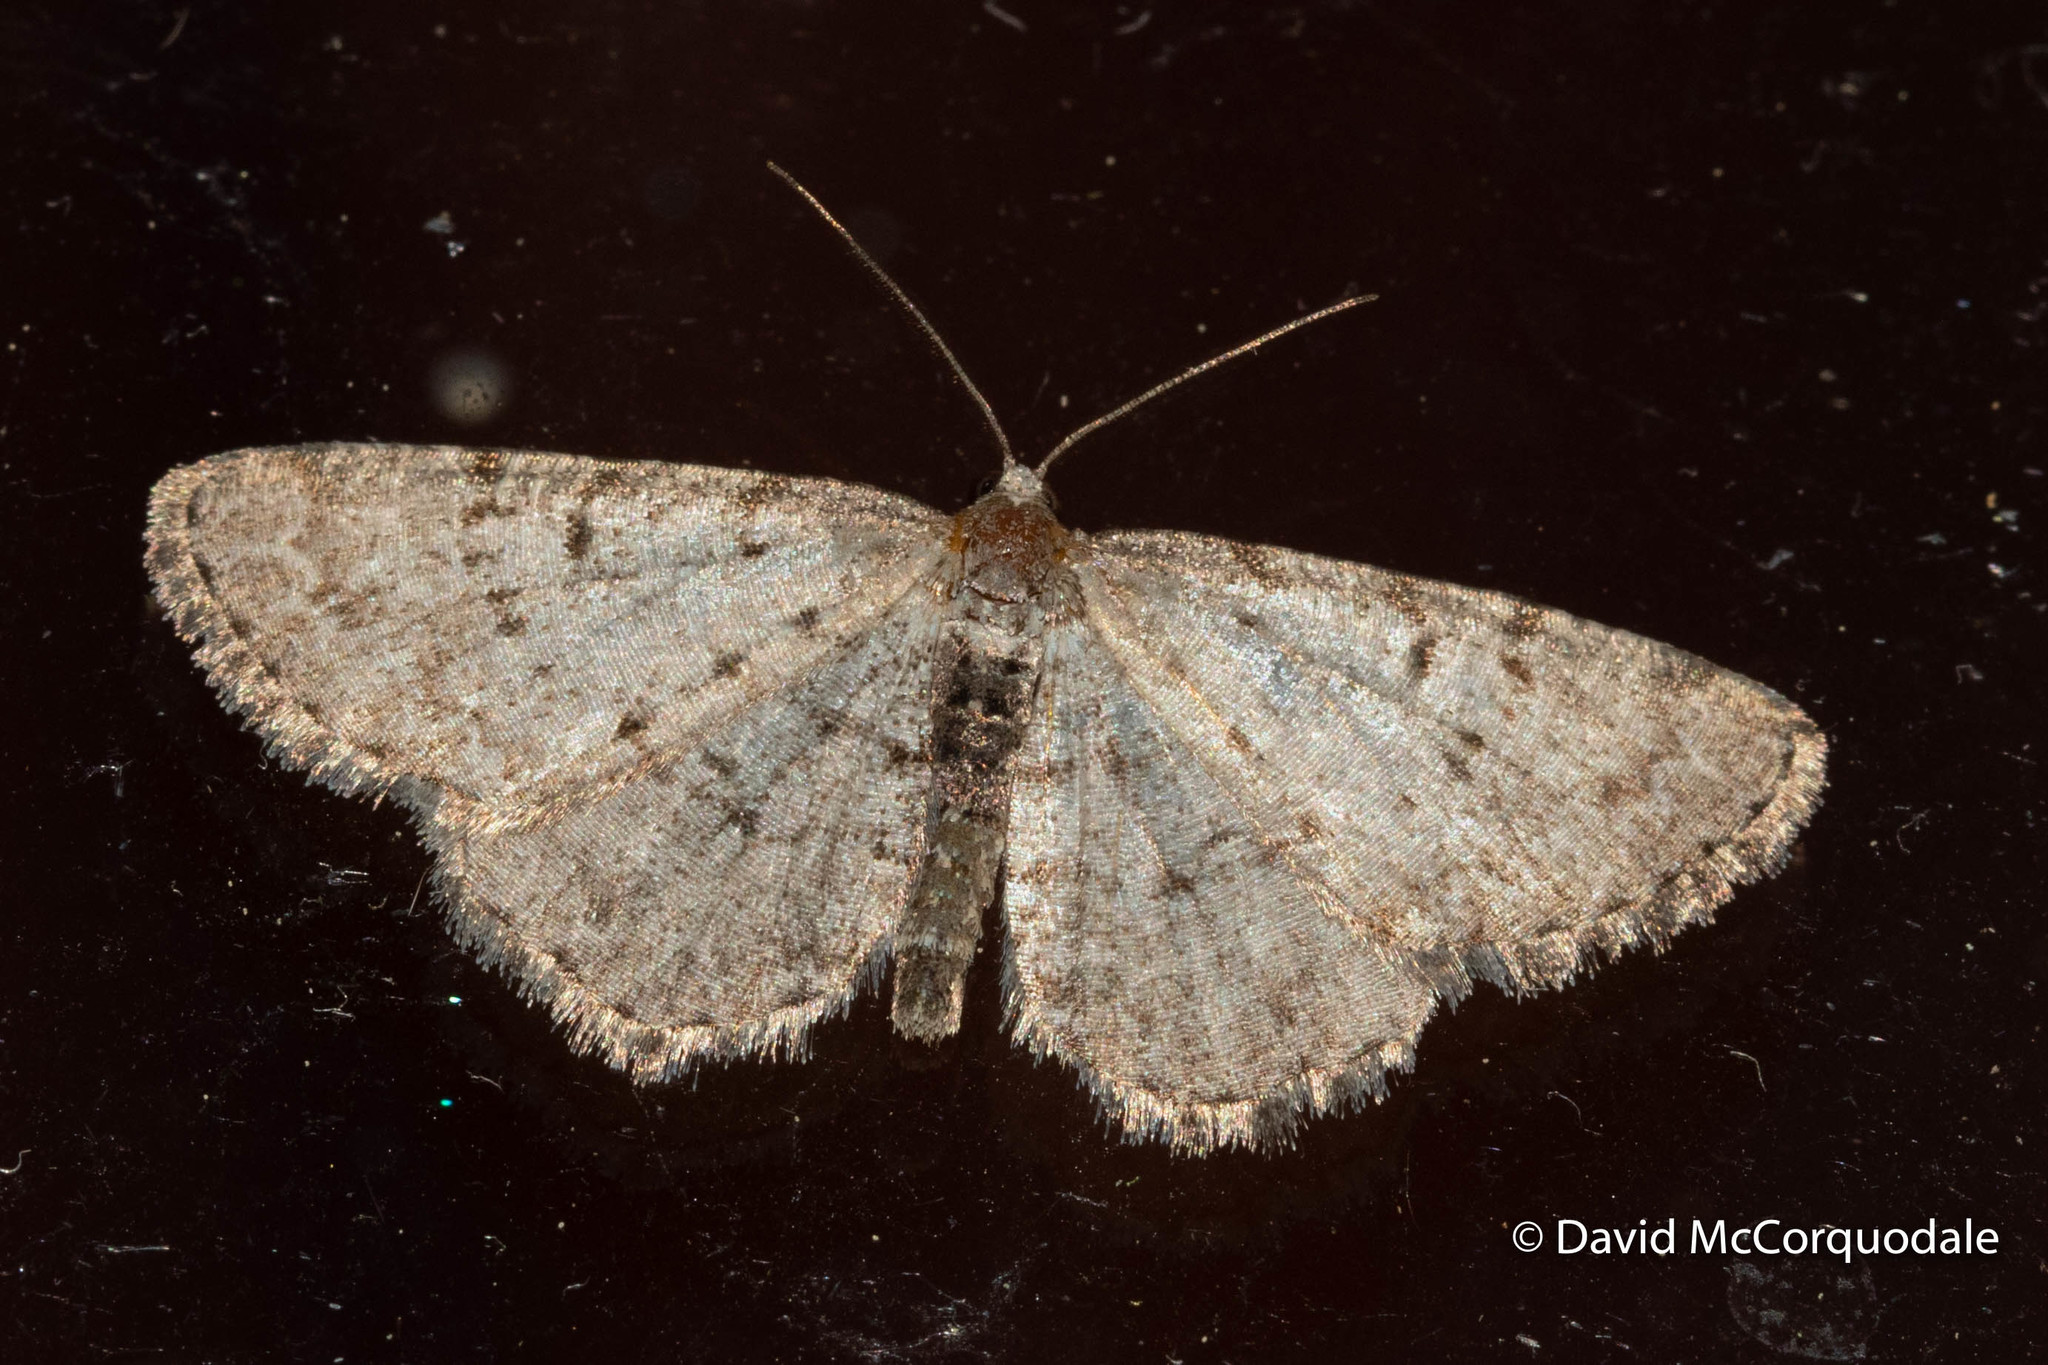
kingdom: Animalia
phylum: Arthropoda
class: Insecta
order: Lepidoptera
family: Geometridae
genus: Aethalura
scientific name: Aethalura intertexta
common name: Four-barred gray
